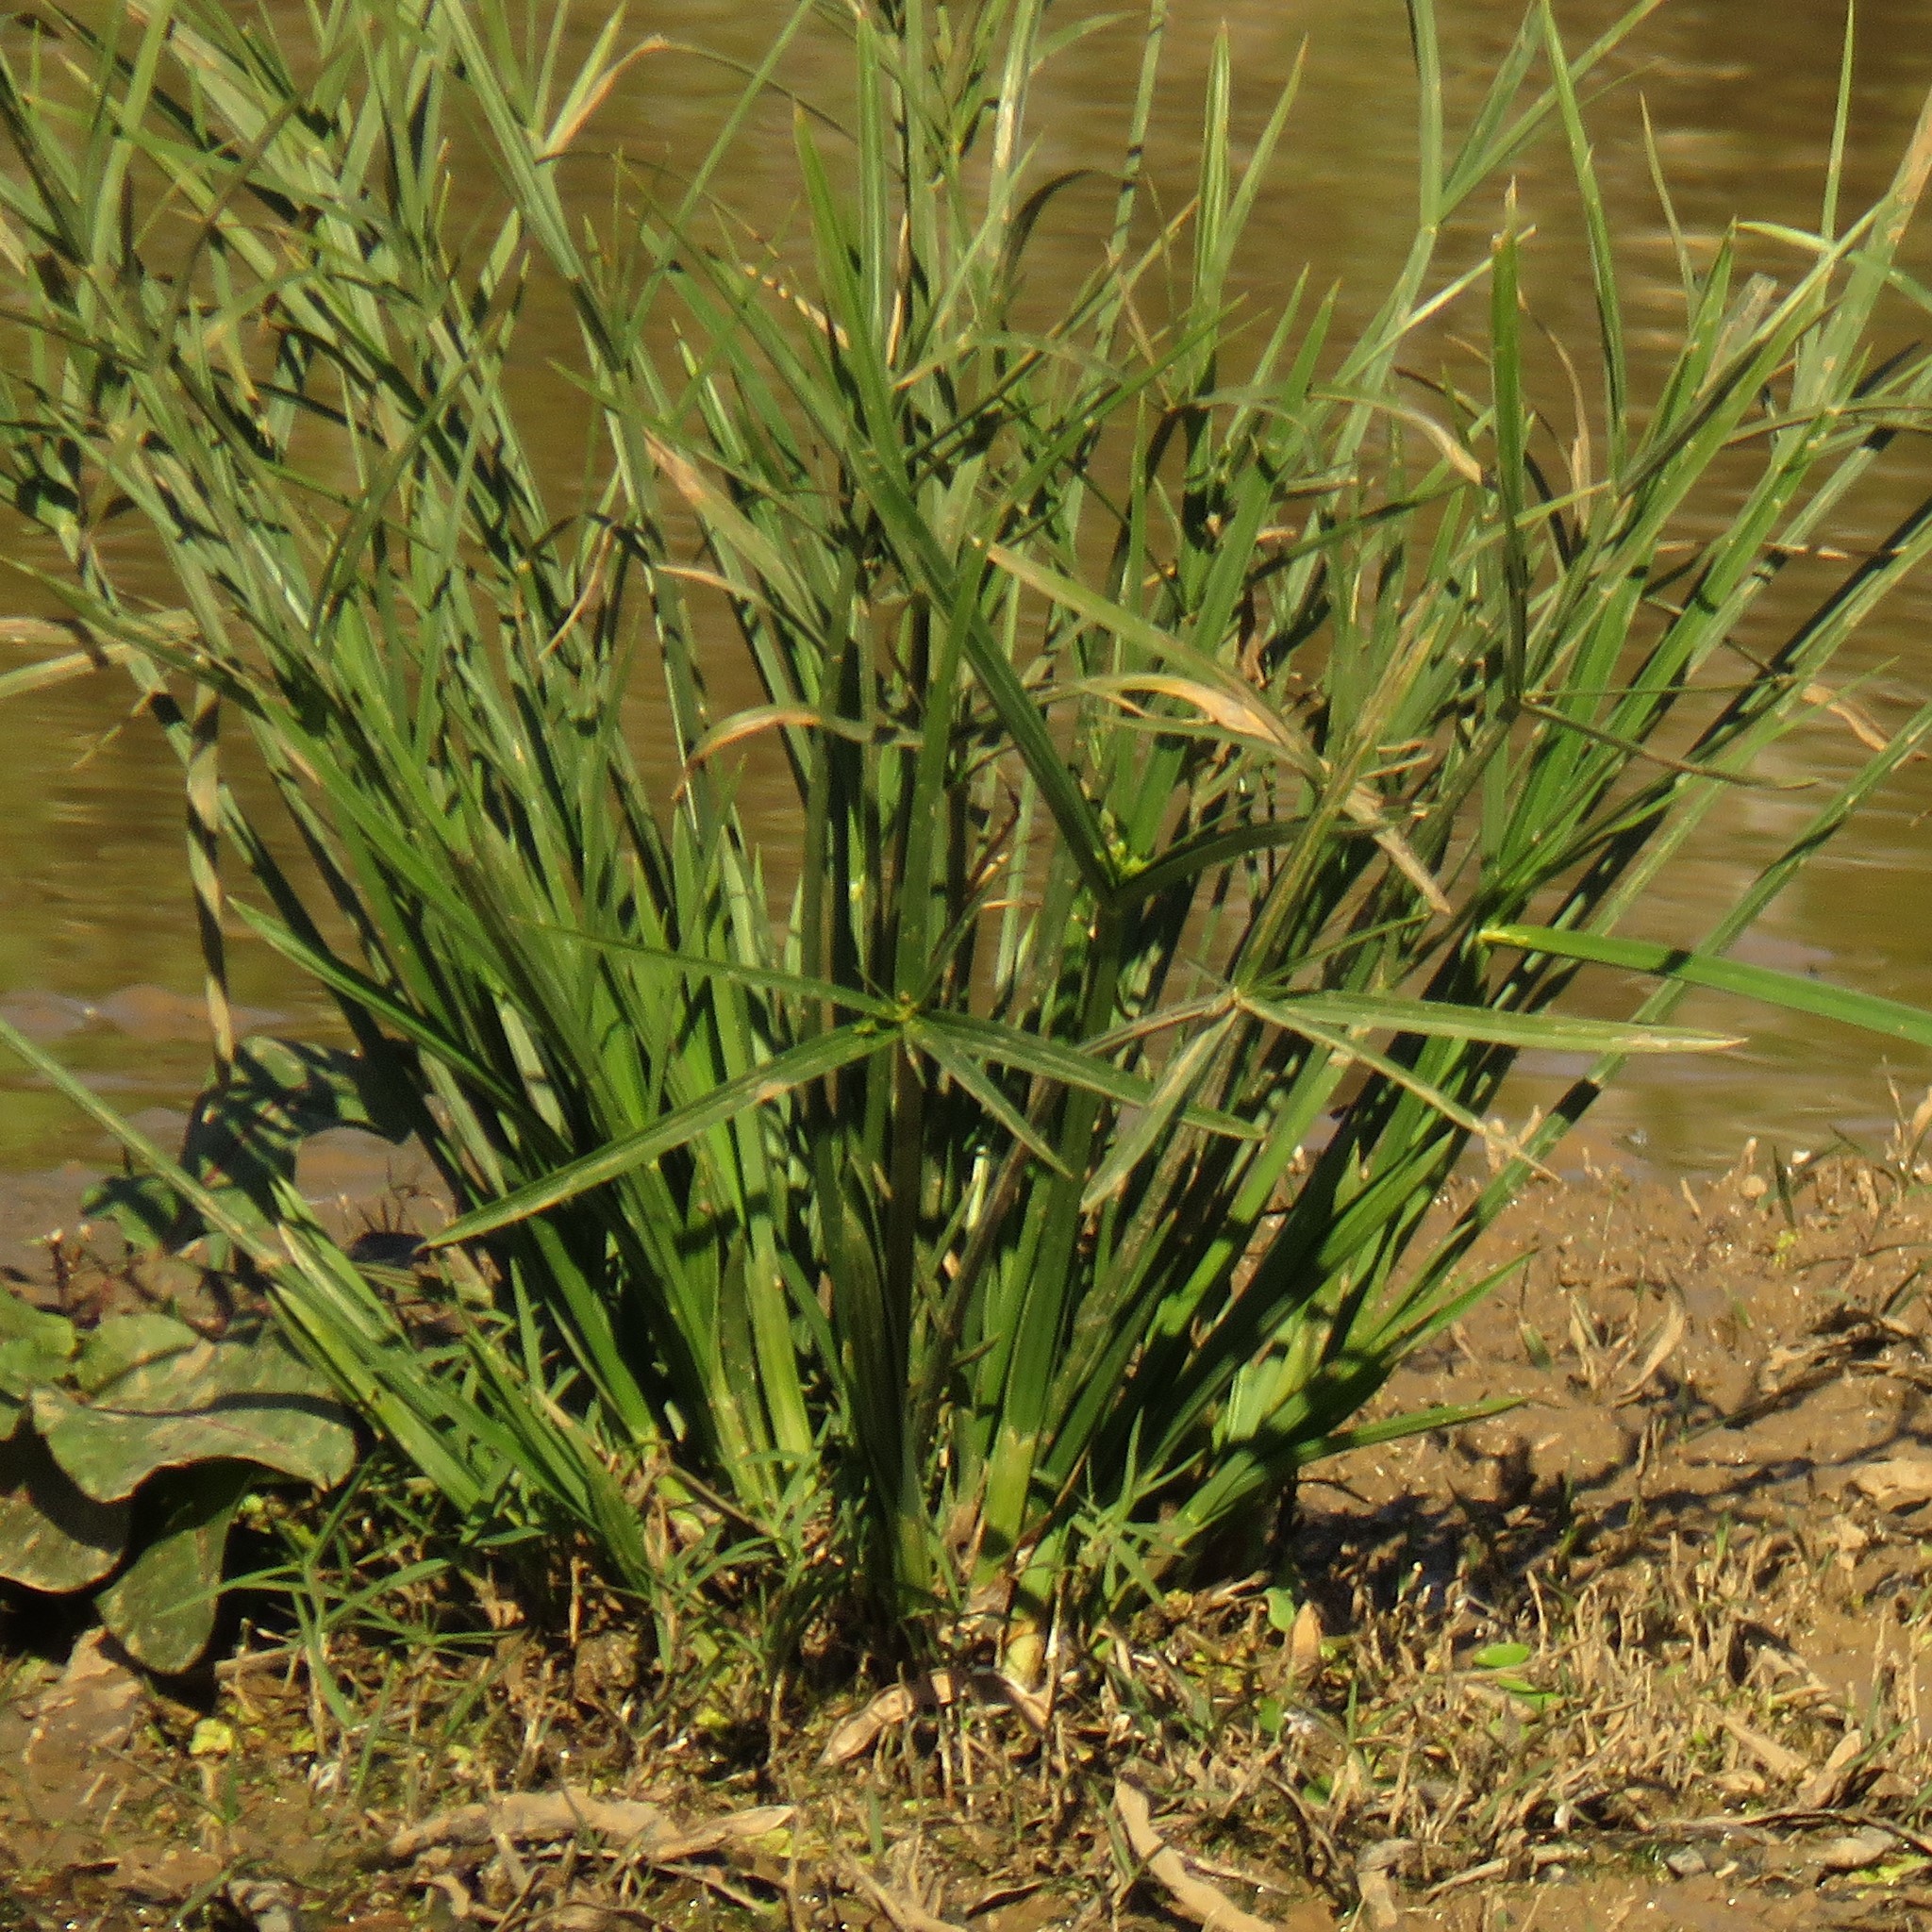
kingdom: Plantae
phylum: Tracheophyta
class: Liliopsida
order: Poales
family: Cyperaceae
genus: Cyperus
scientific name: Cyperus textilis
